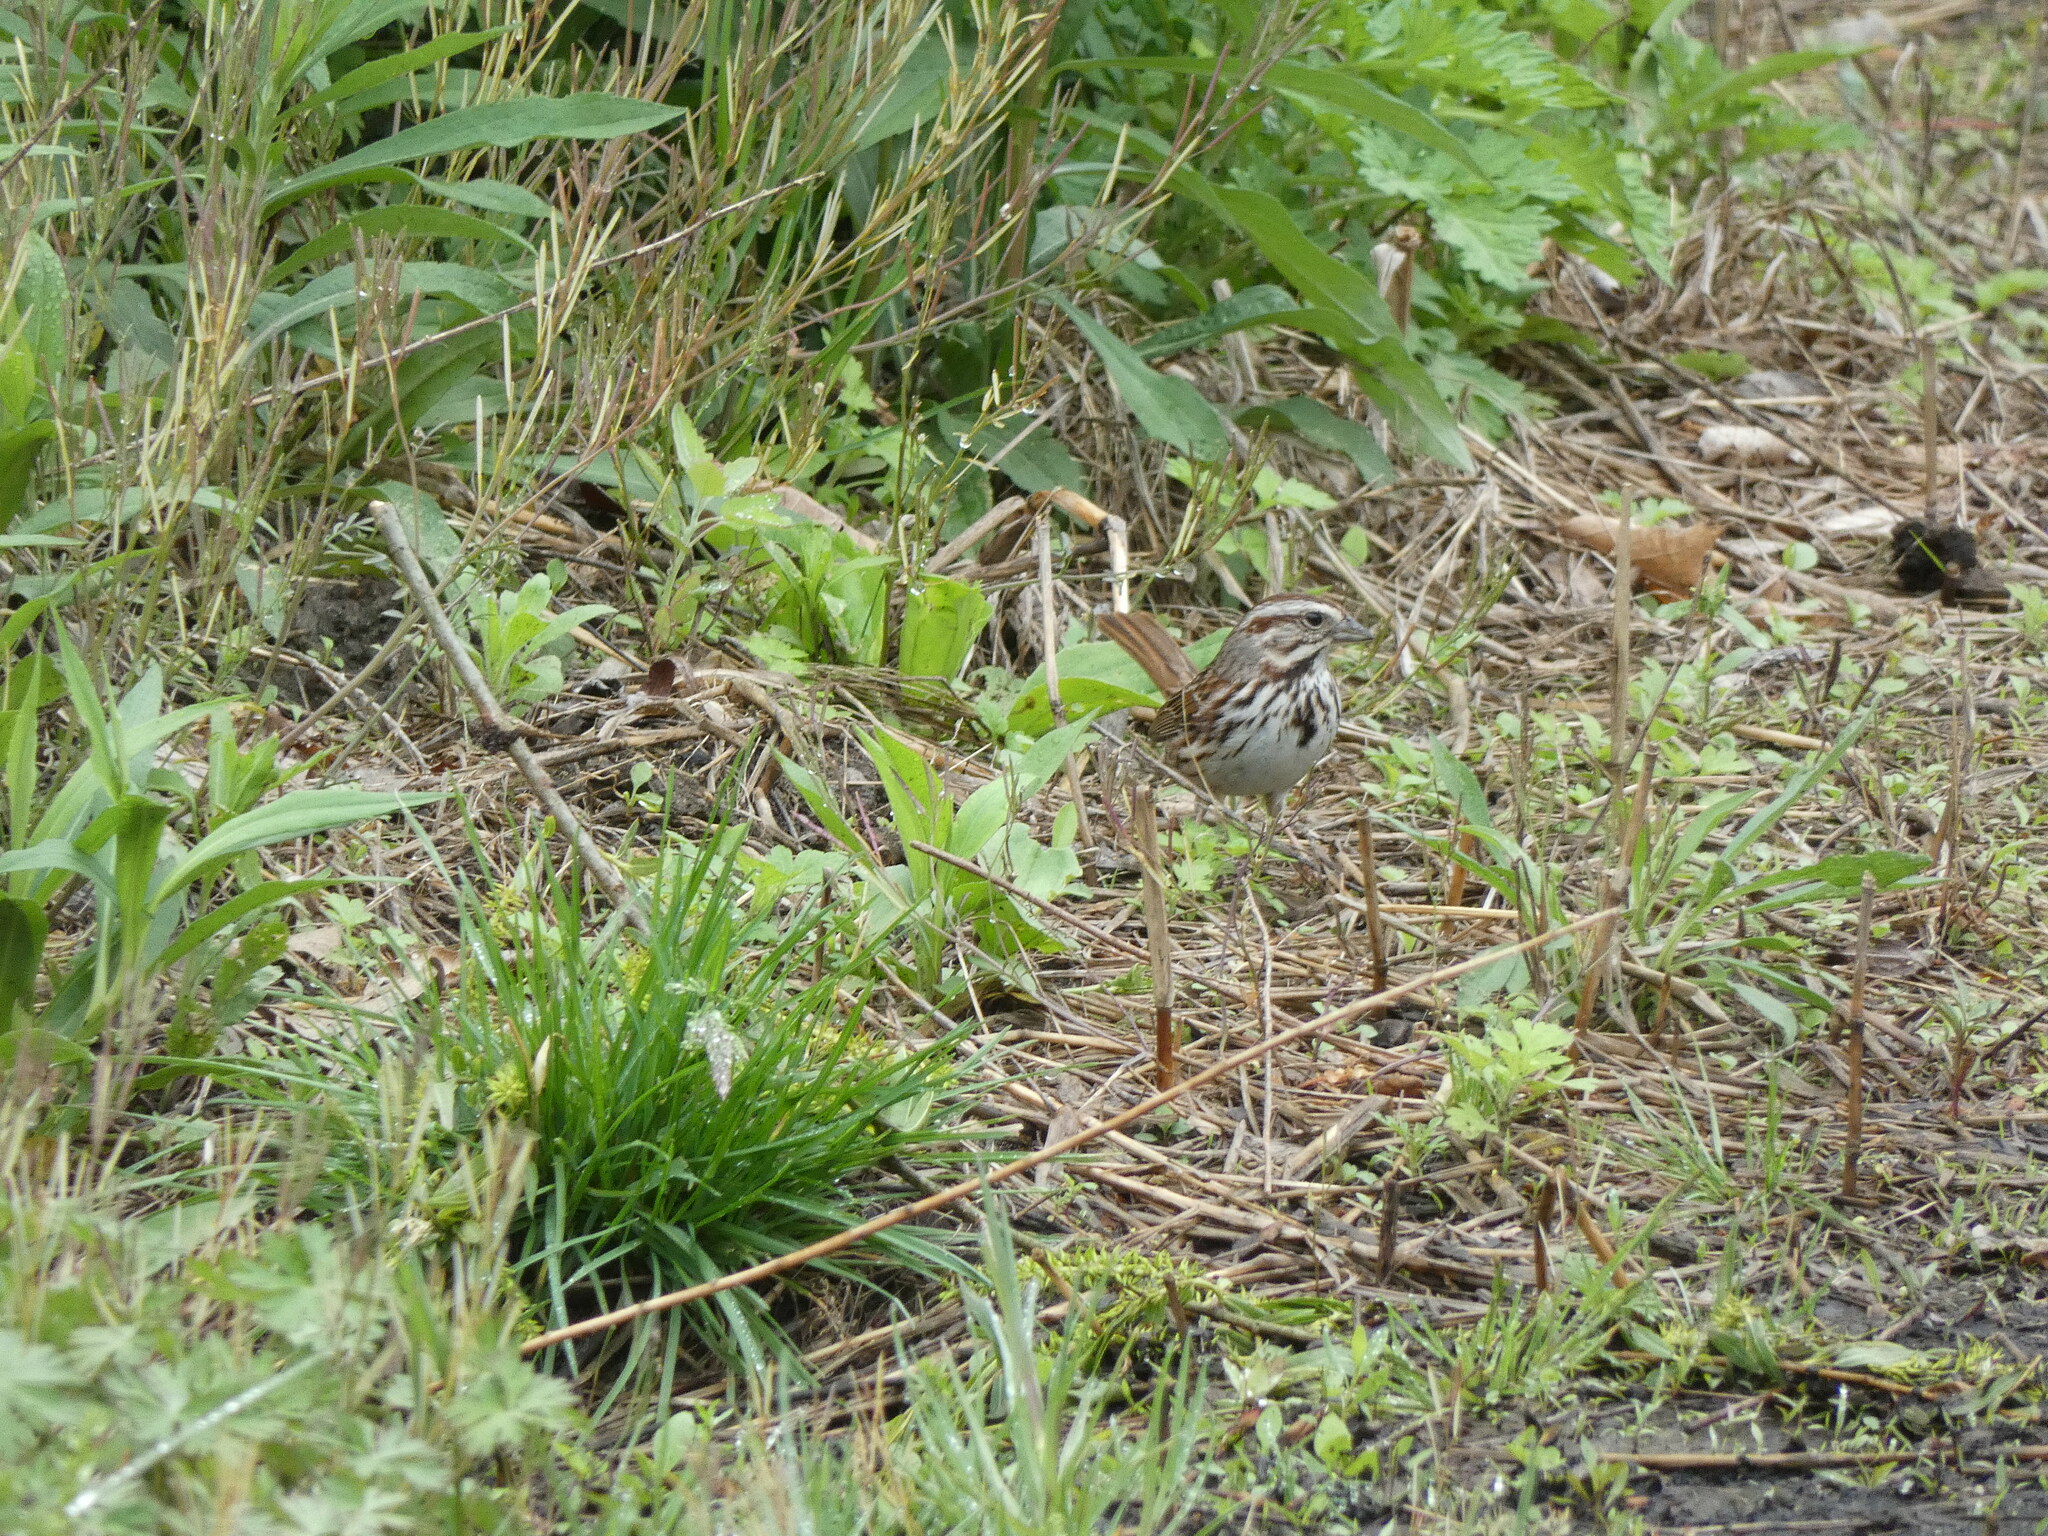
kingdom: Animalia
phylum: Chordata
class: Aves
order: Passeriformes
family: Passerellidae
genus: Melospiza
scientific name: Melospiza melodia
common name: Song sparrow
